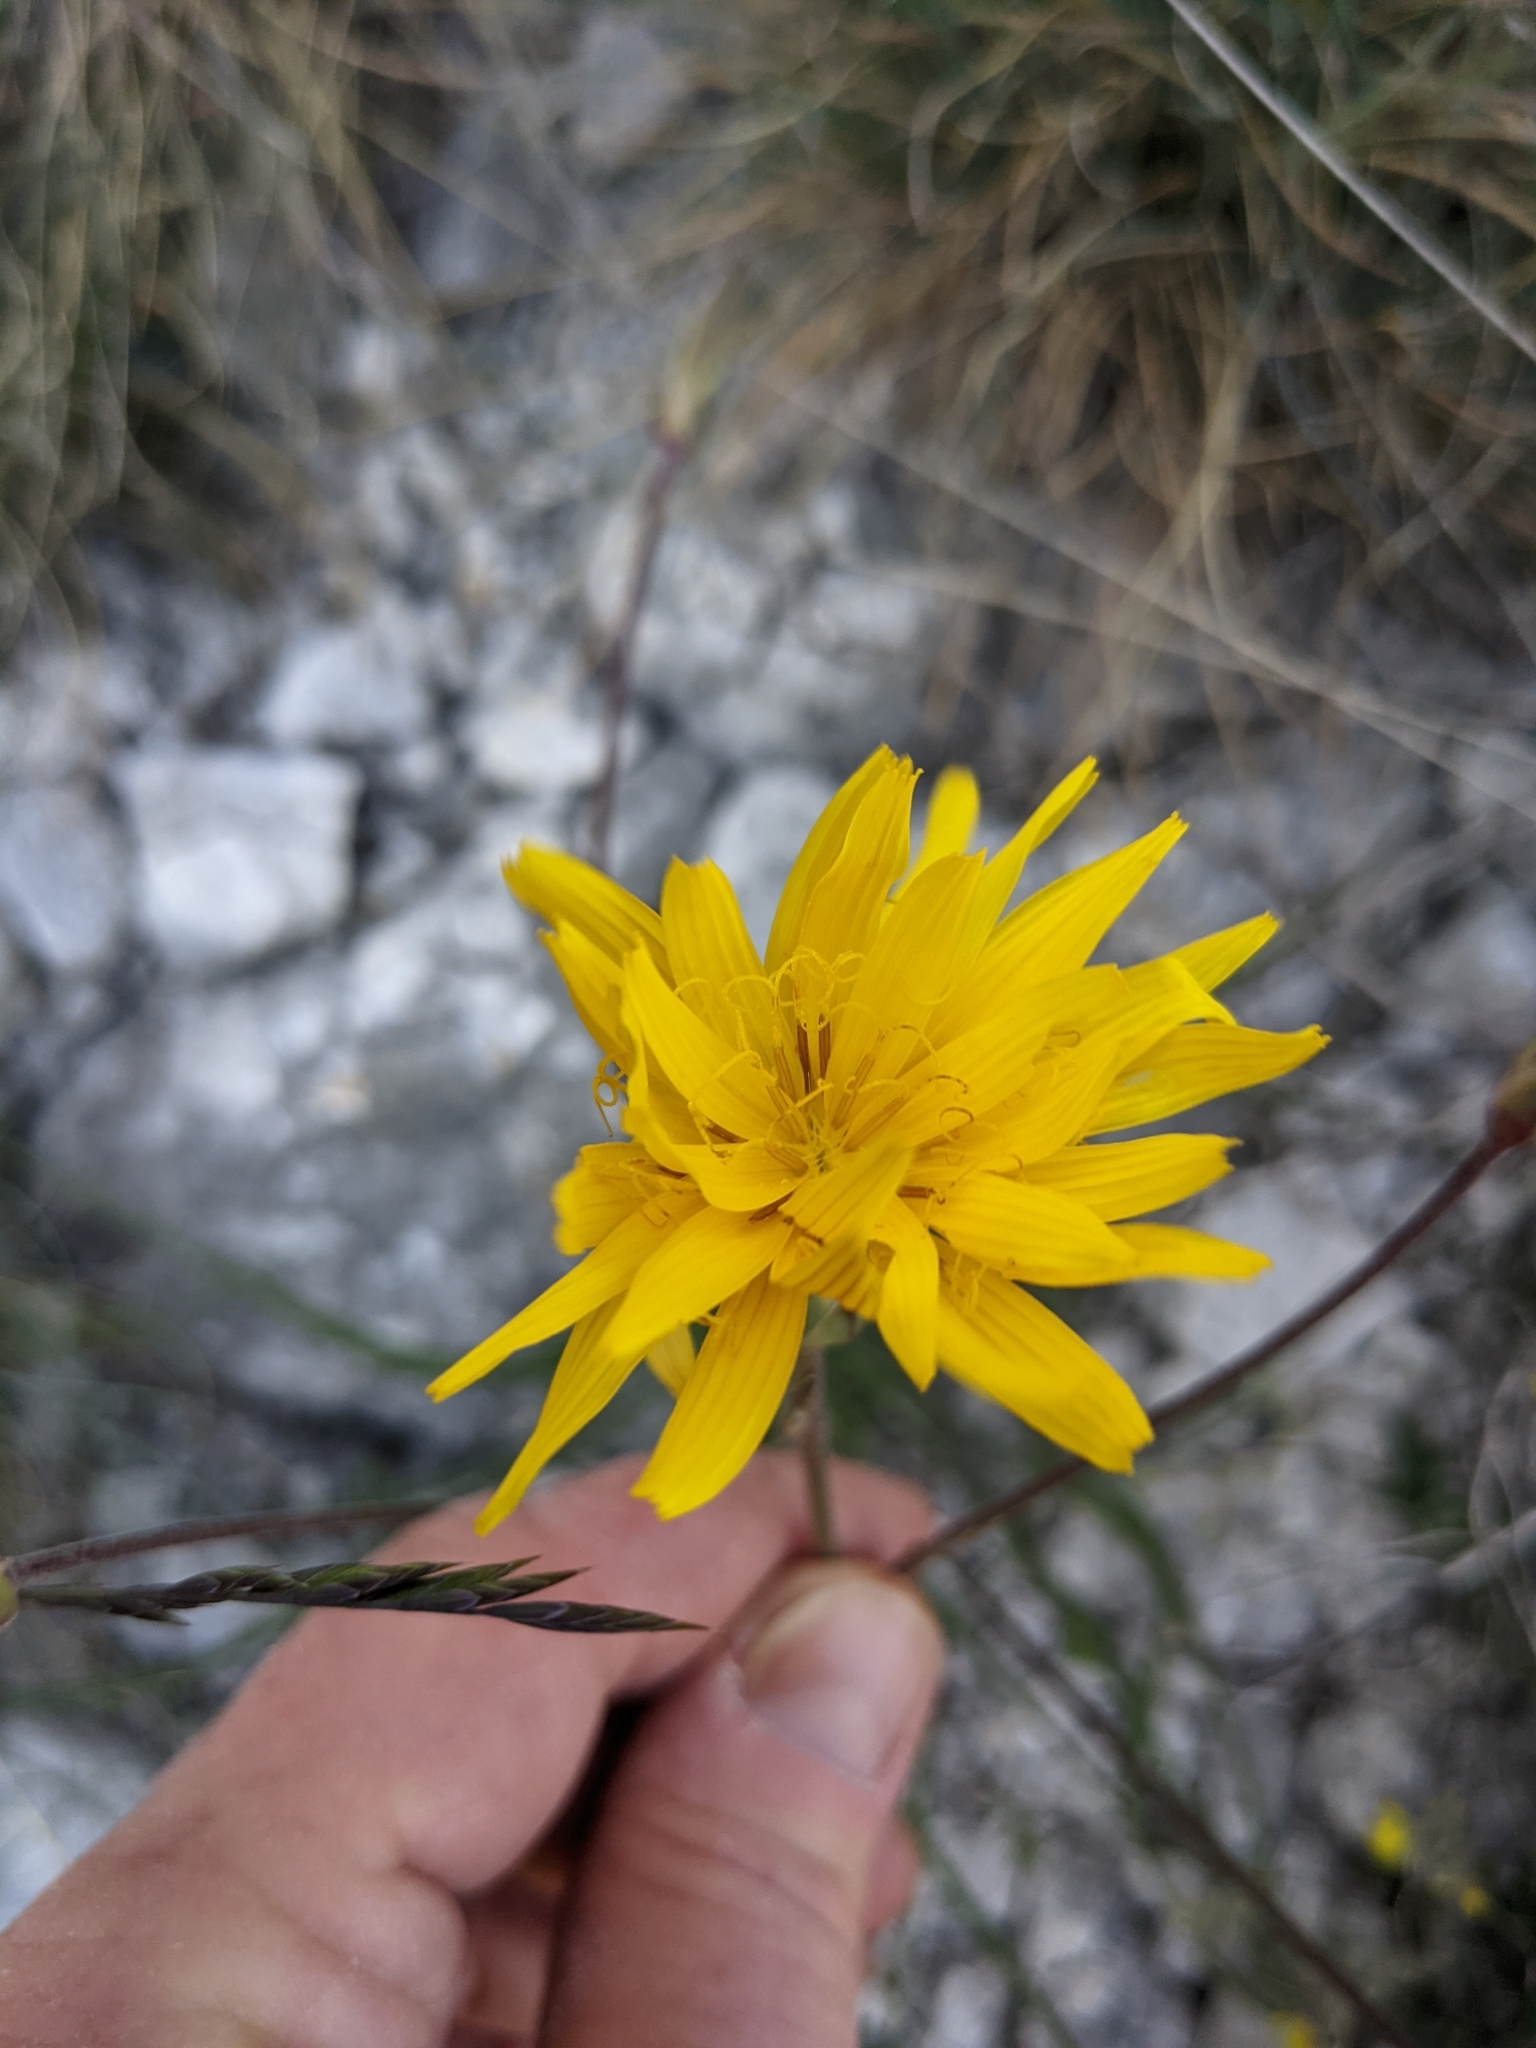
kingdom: Plantae
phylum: Tracheophyta
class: Magnoliopsida
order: Asterales
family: Asteraceae
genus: Pseudopodospermum
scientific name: Pseudopodospermum hispanicum
